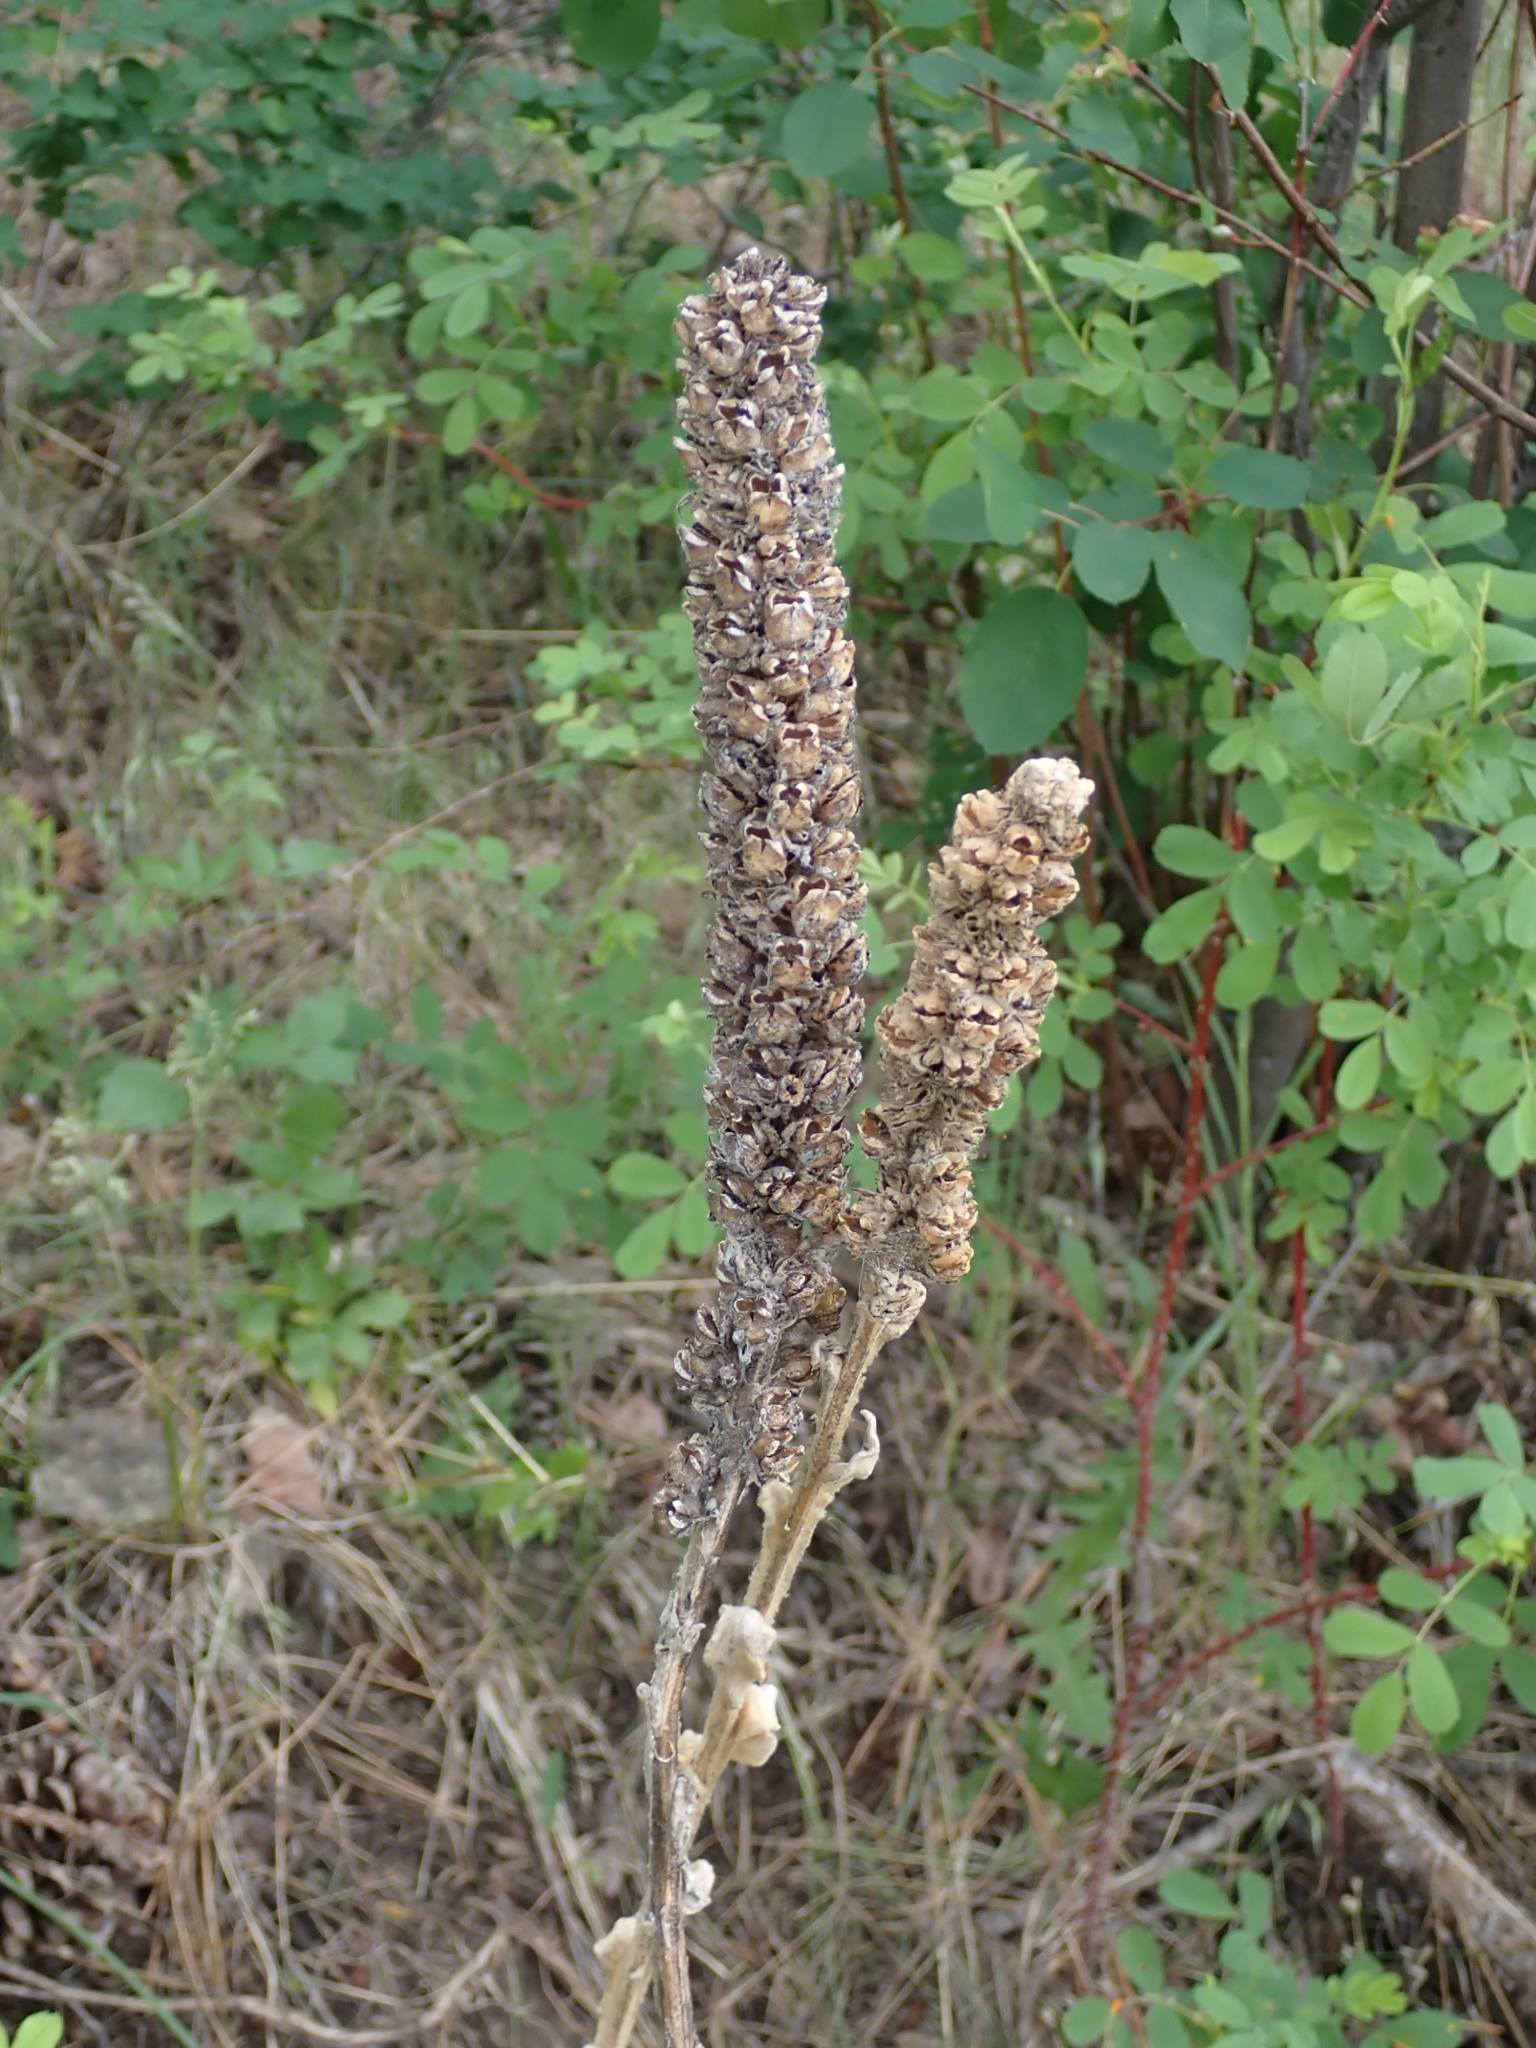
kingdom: Plantae
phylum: Tracheophyta
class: Magnoliopsida
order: Lamiales
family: Scrophulariaceae
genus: Verbascum
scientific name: Verbascum thapsus
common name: Common mullein
